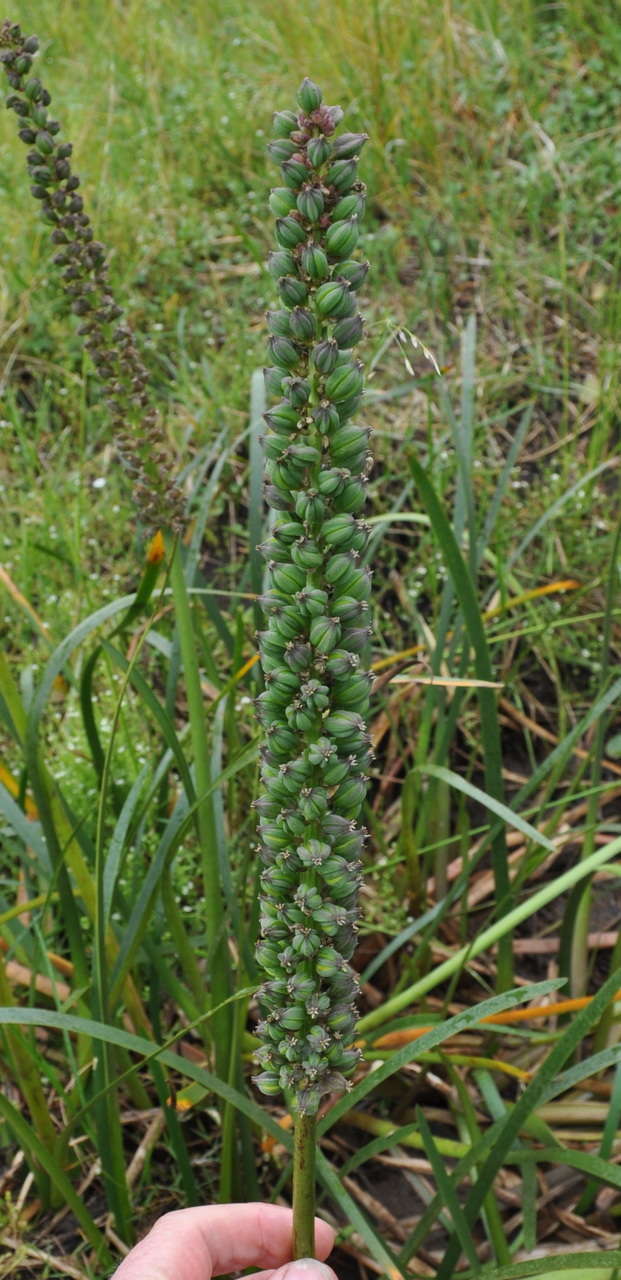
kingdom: Plantae
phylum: Tracheophyta
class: Liliopsida
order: Alismatales
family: Juncaginaceae
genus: Cycnogeton
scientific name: Cycnogeton procerum
